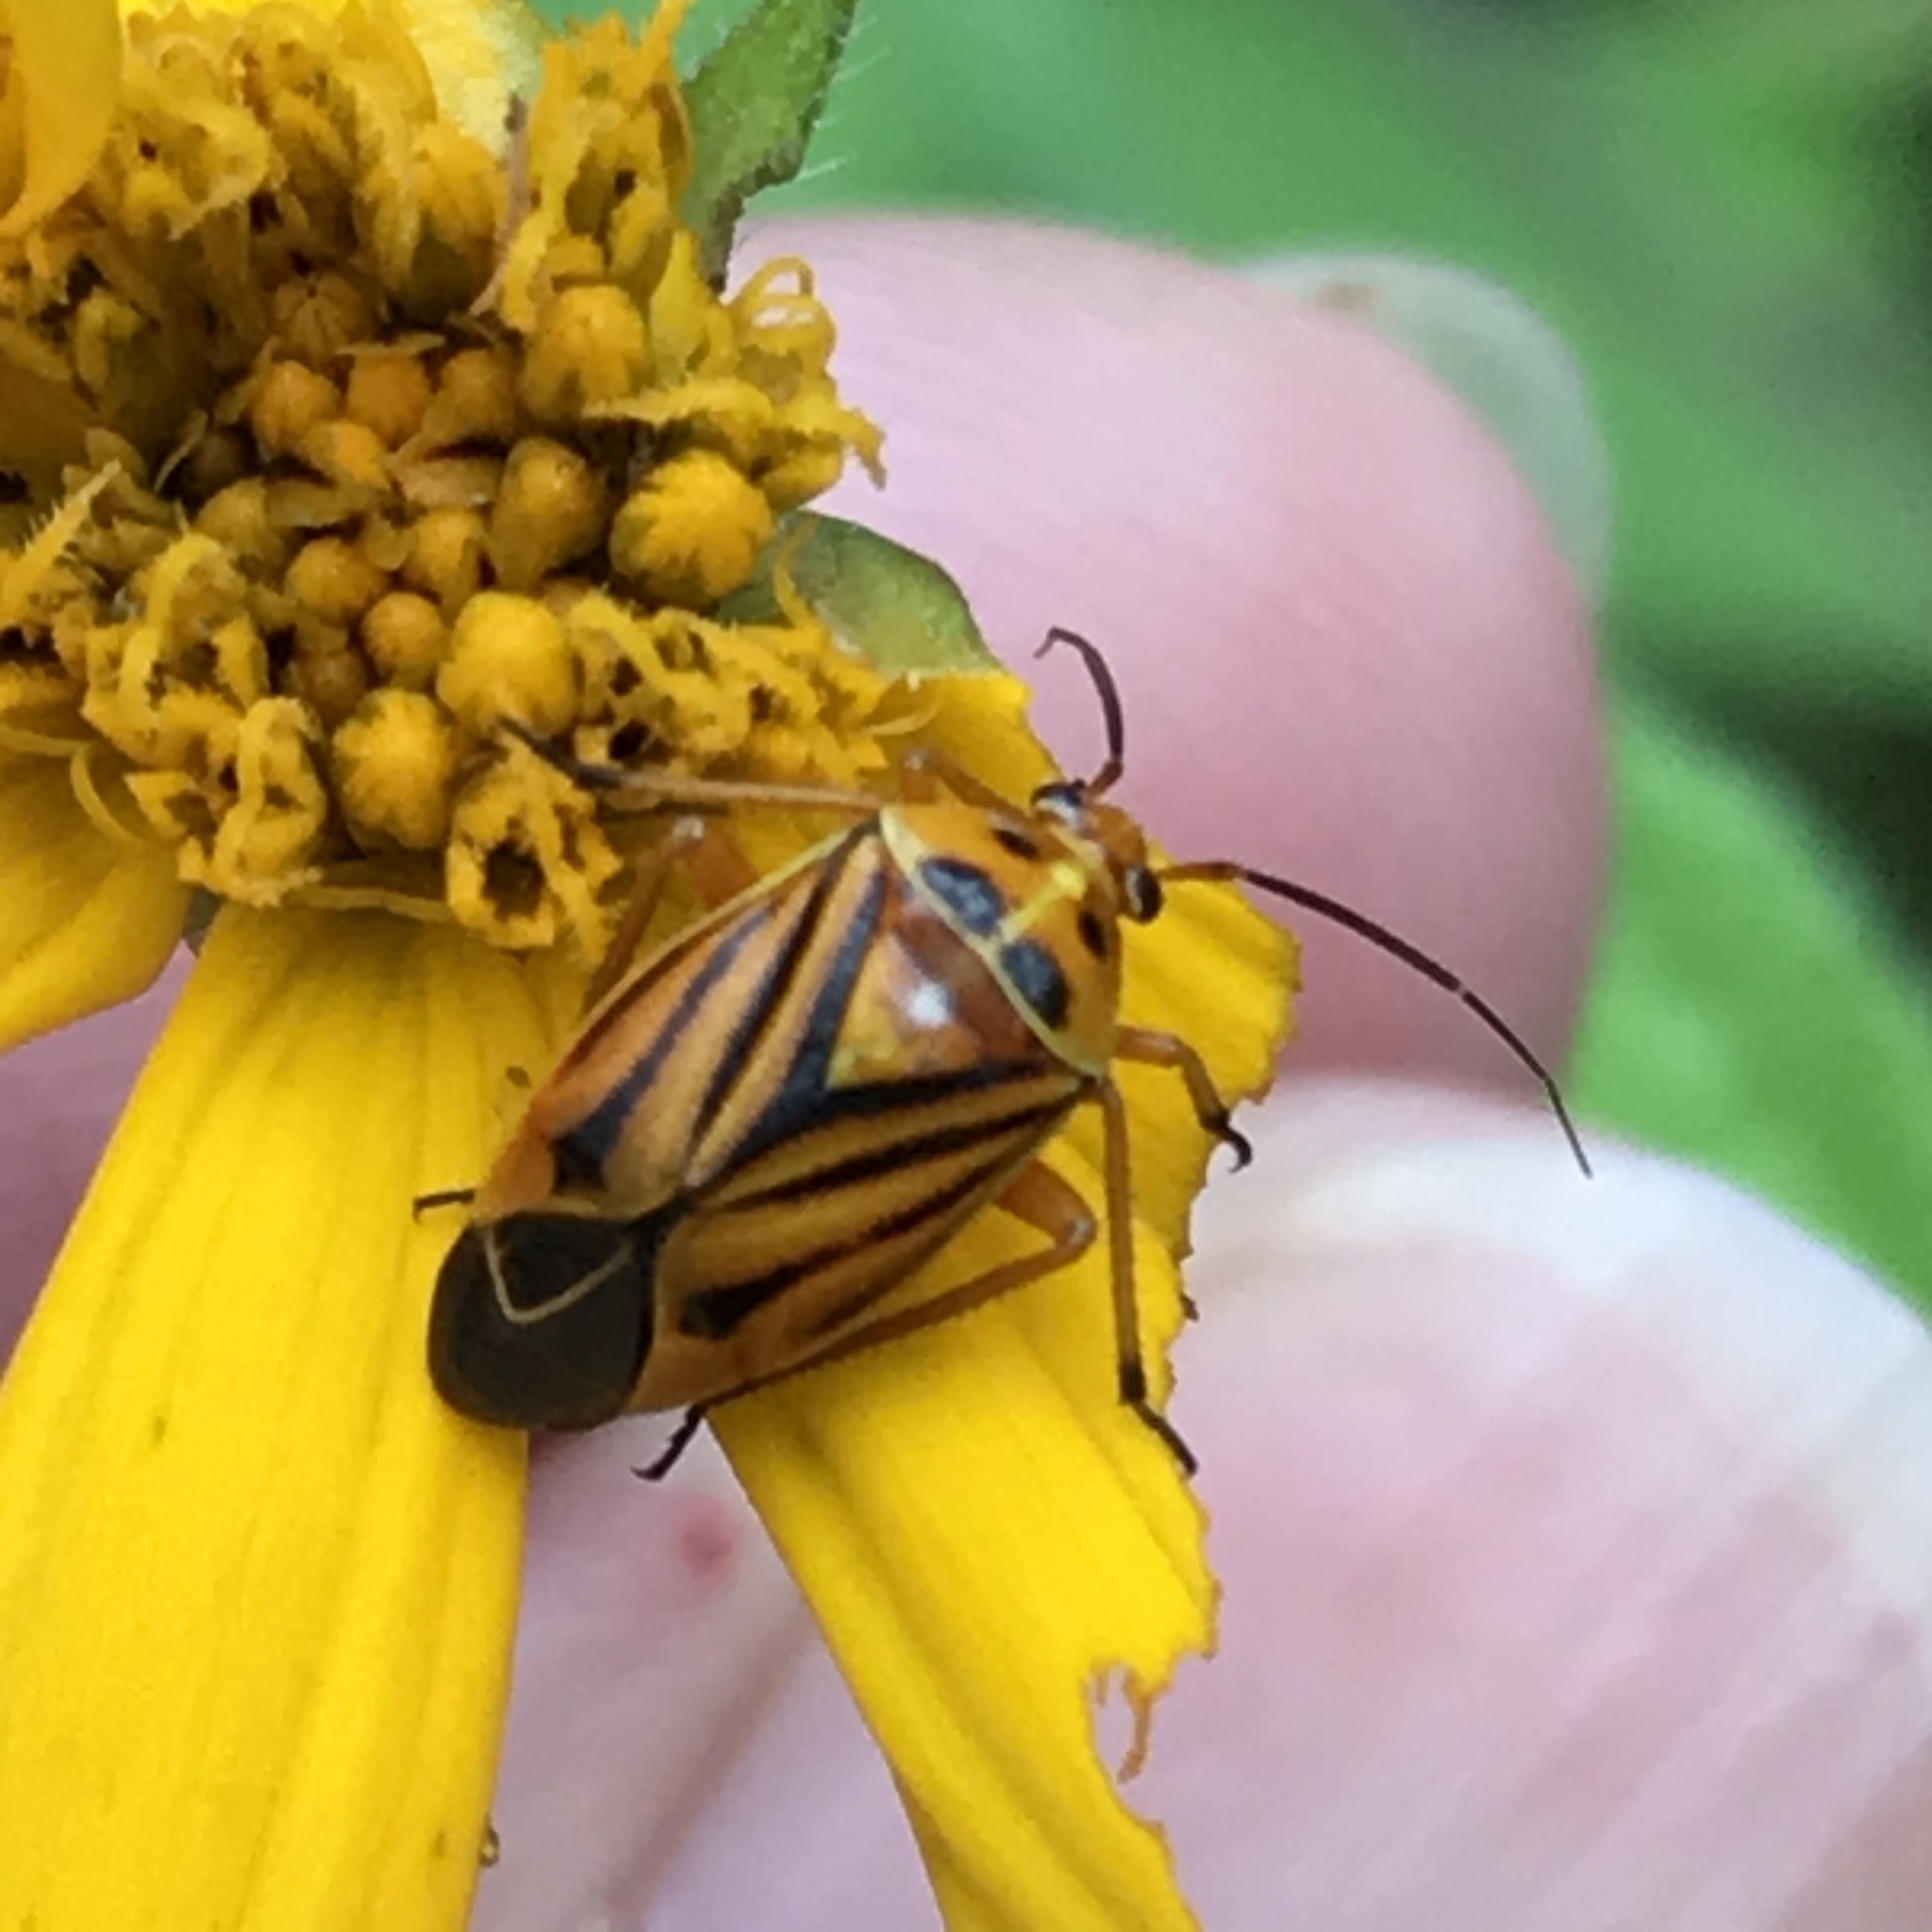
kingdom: Animalia
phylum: Arthropoda
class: Insecta
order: Hemiptera
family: Miridae
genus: Calocoris
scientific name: Calocoris barberi
